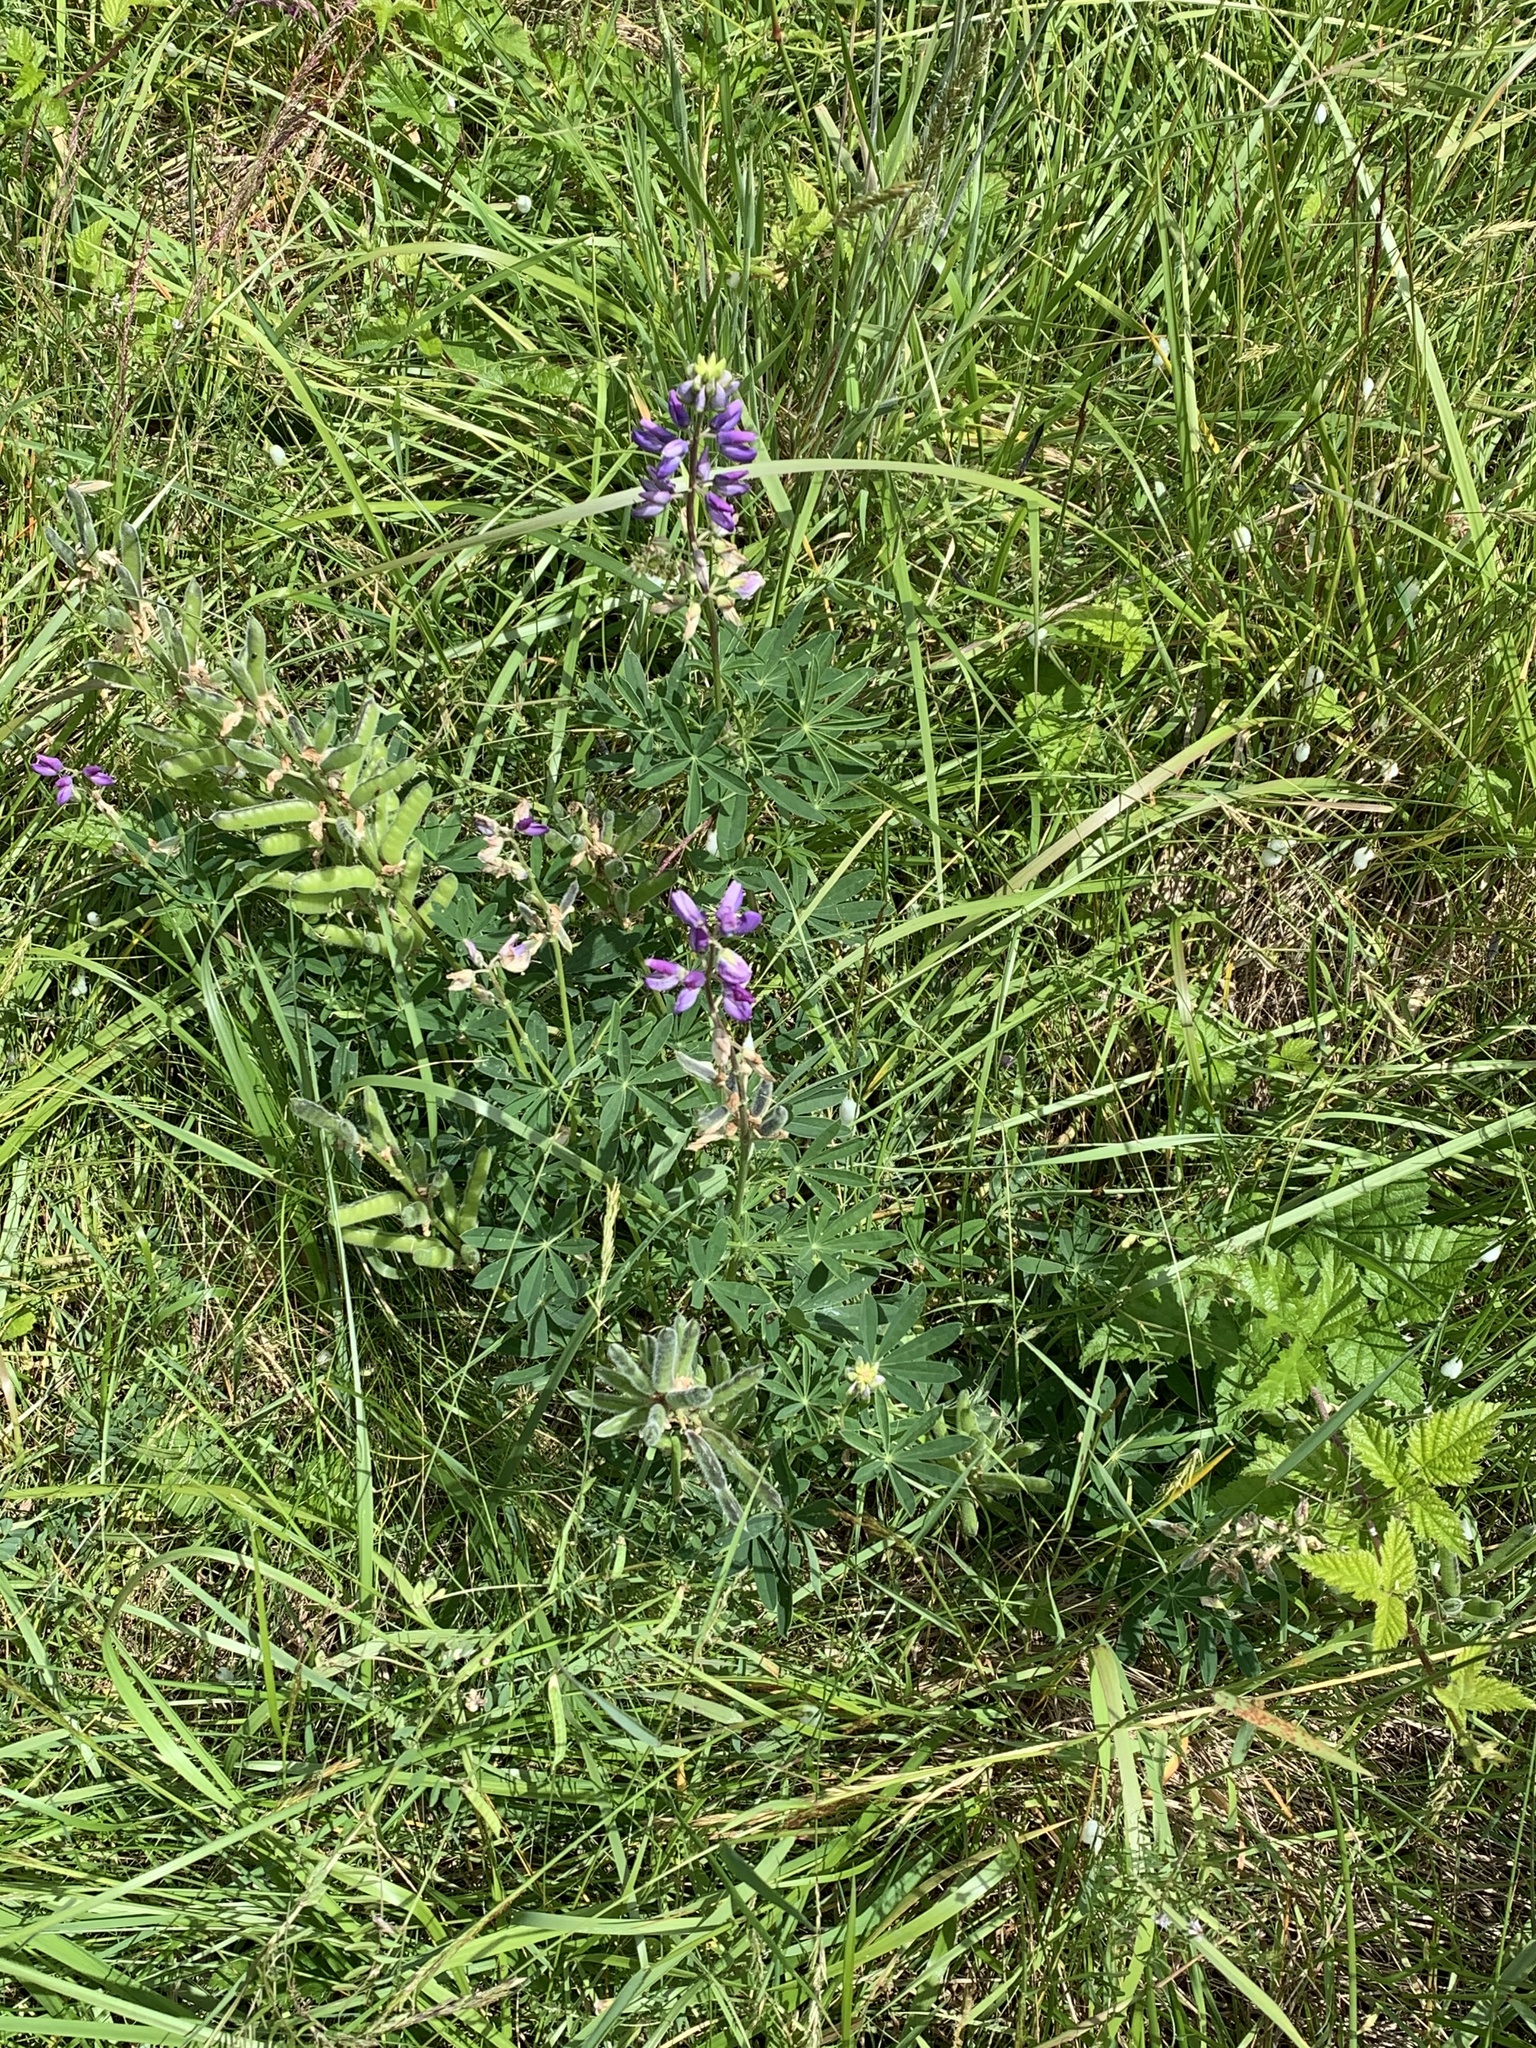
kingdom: Plantae
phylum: Tracheophyta
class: Magnoliopsida
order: Fabales
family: Fabaceae
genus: Lupinus
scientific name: Lupinus rivularis
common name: Riverbank lupine
